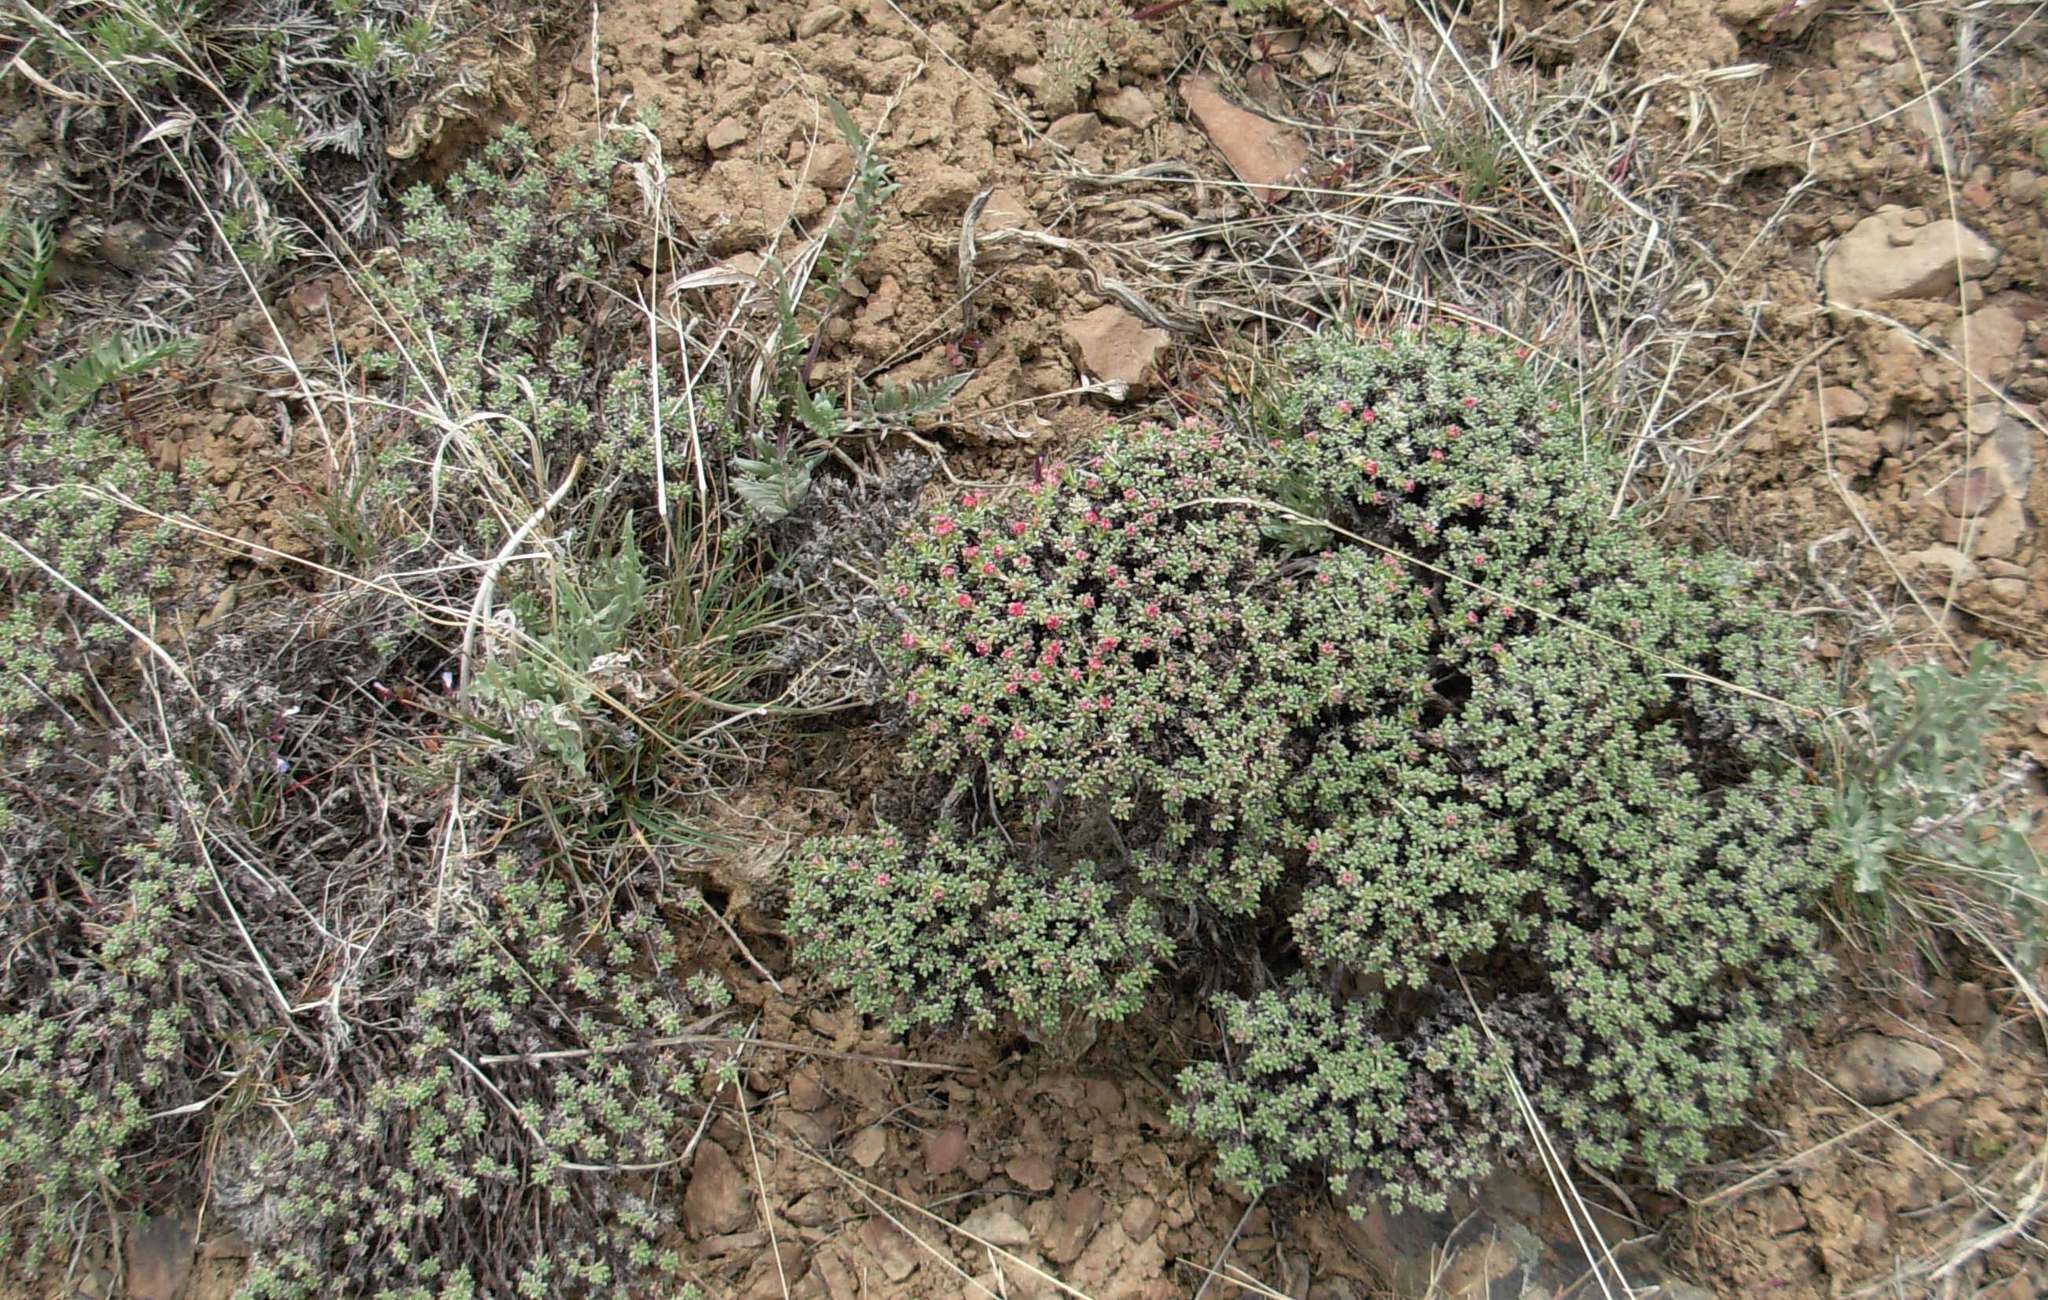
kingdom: Plantae
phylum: Tracheophyta
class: Magnoliopsida
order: Caryophyllales
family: Polygonaceae
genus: Eriogonum
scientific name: Eriogonum thymoides
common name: Thyme-leaf wild buckwheat
